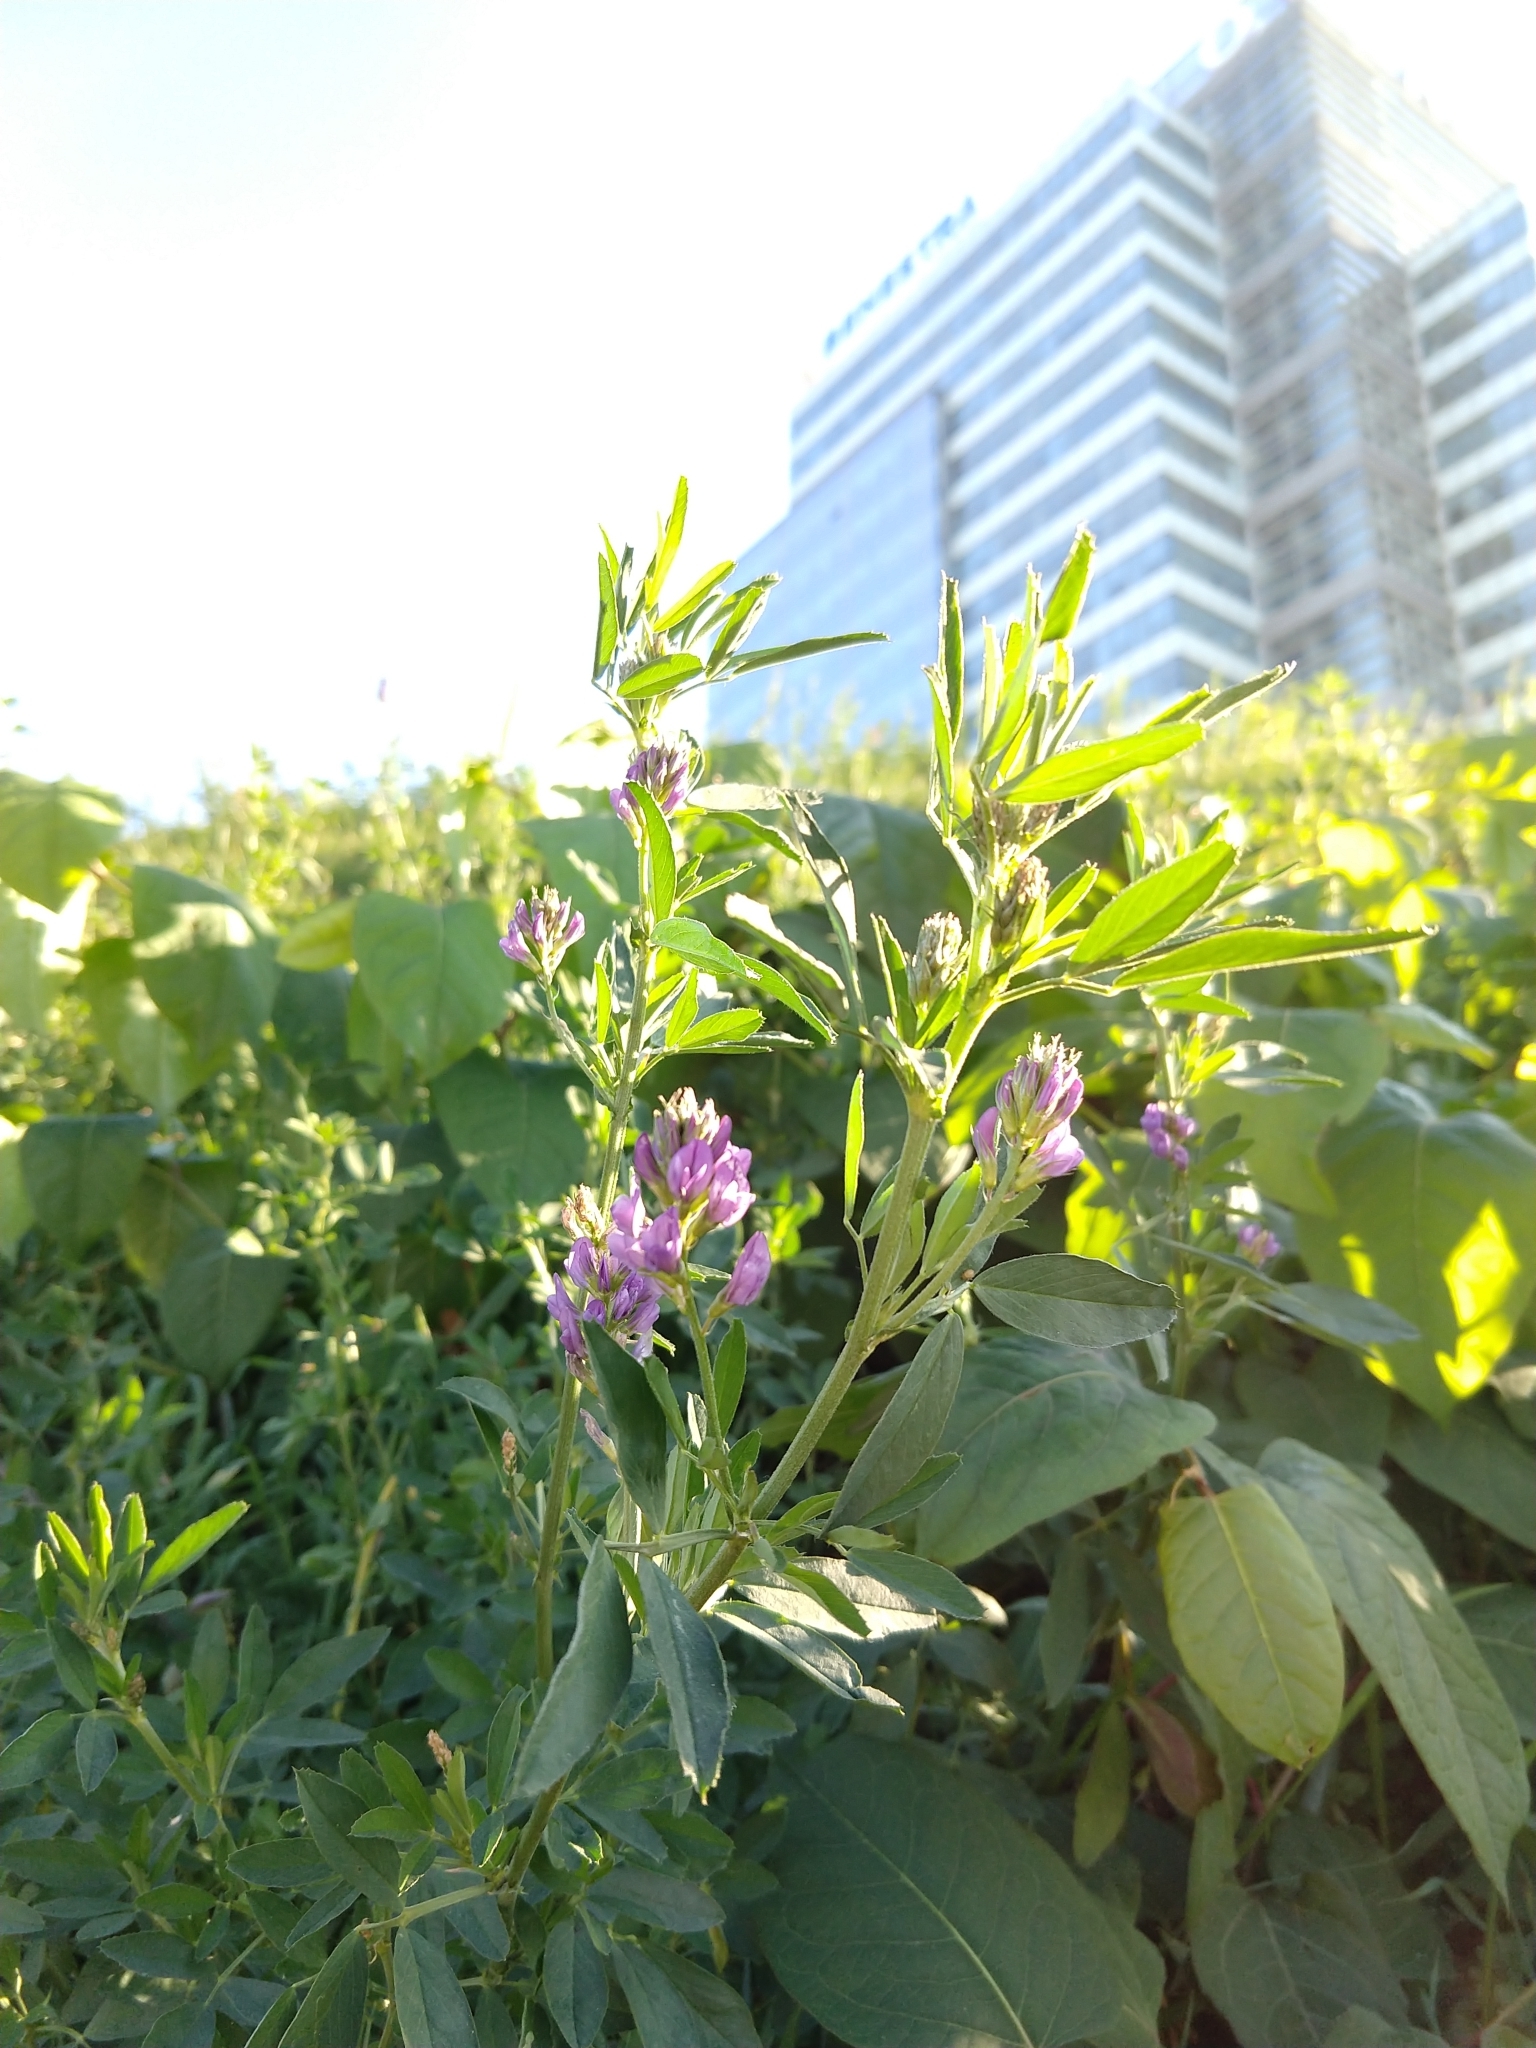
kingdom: Plantae
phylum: Tracheophyta
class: Magnoliopsida
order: Fabales
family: Fabaceae
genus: Medicago
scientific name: Medicago sativa
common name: Alfalfa
